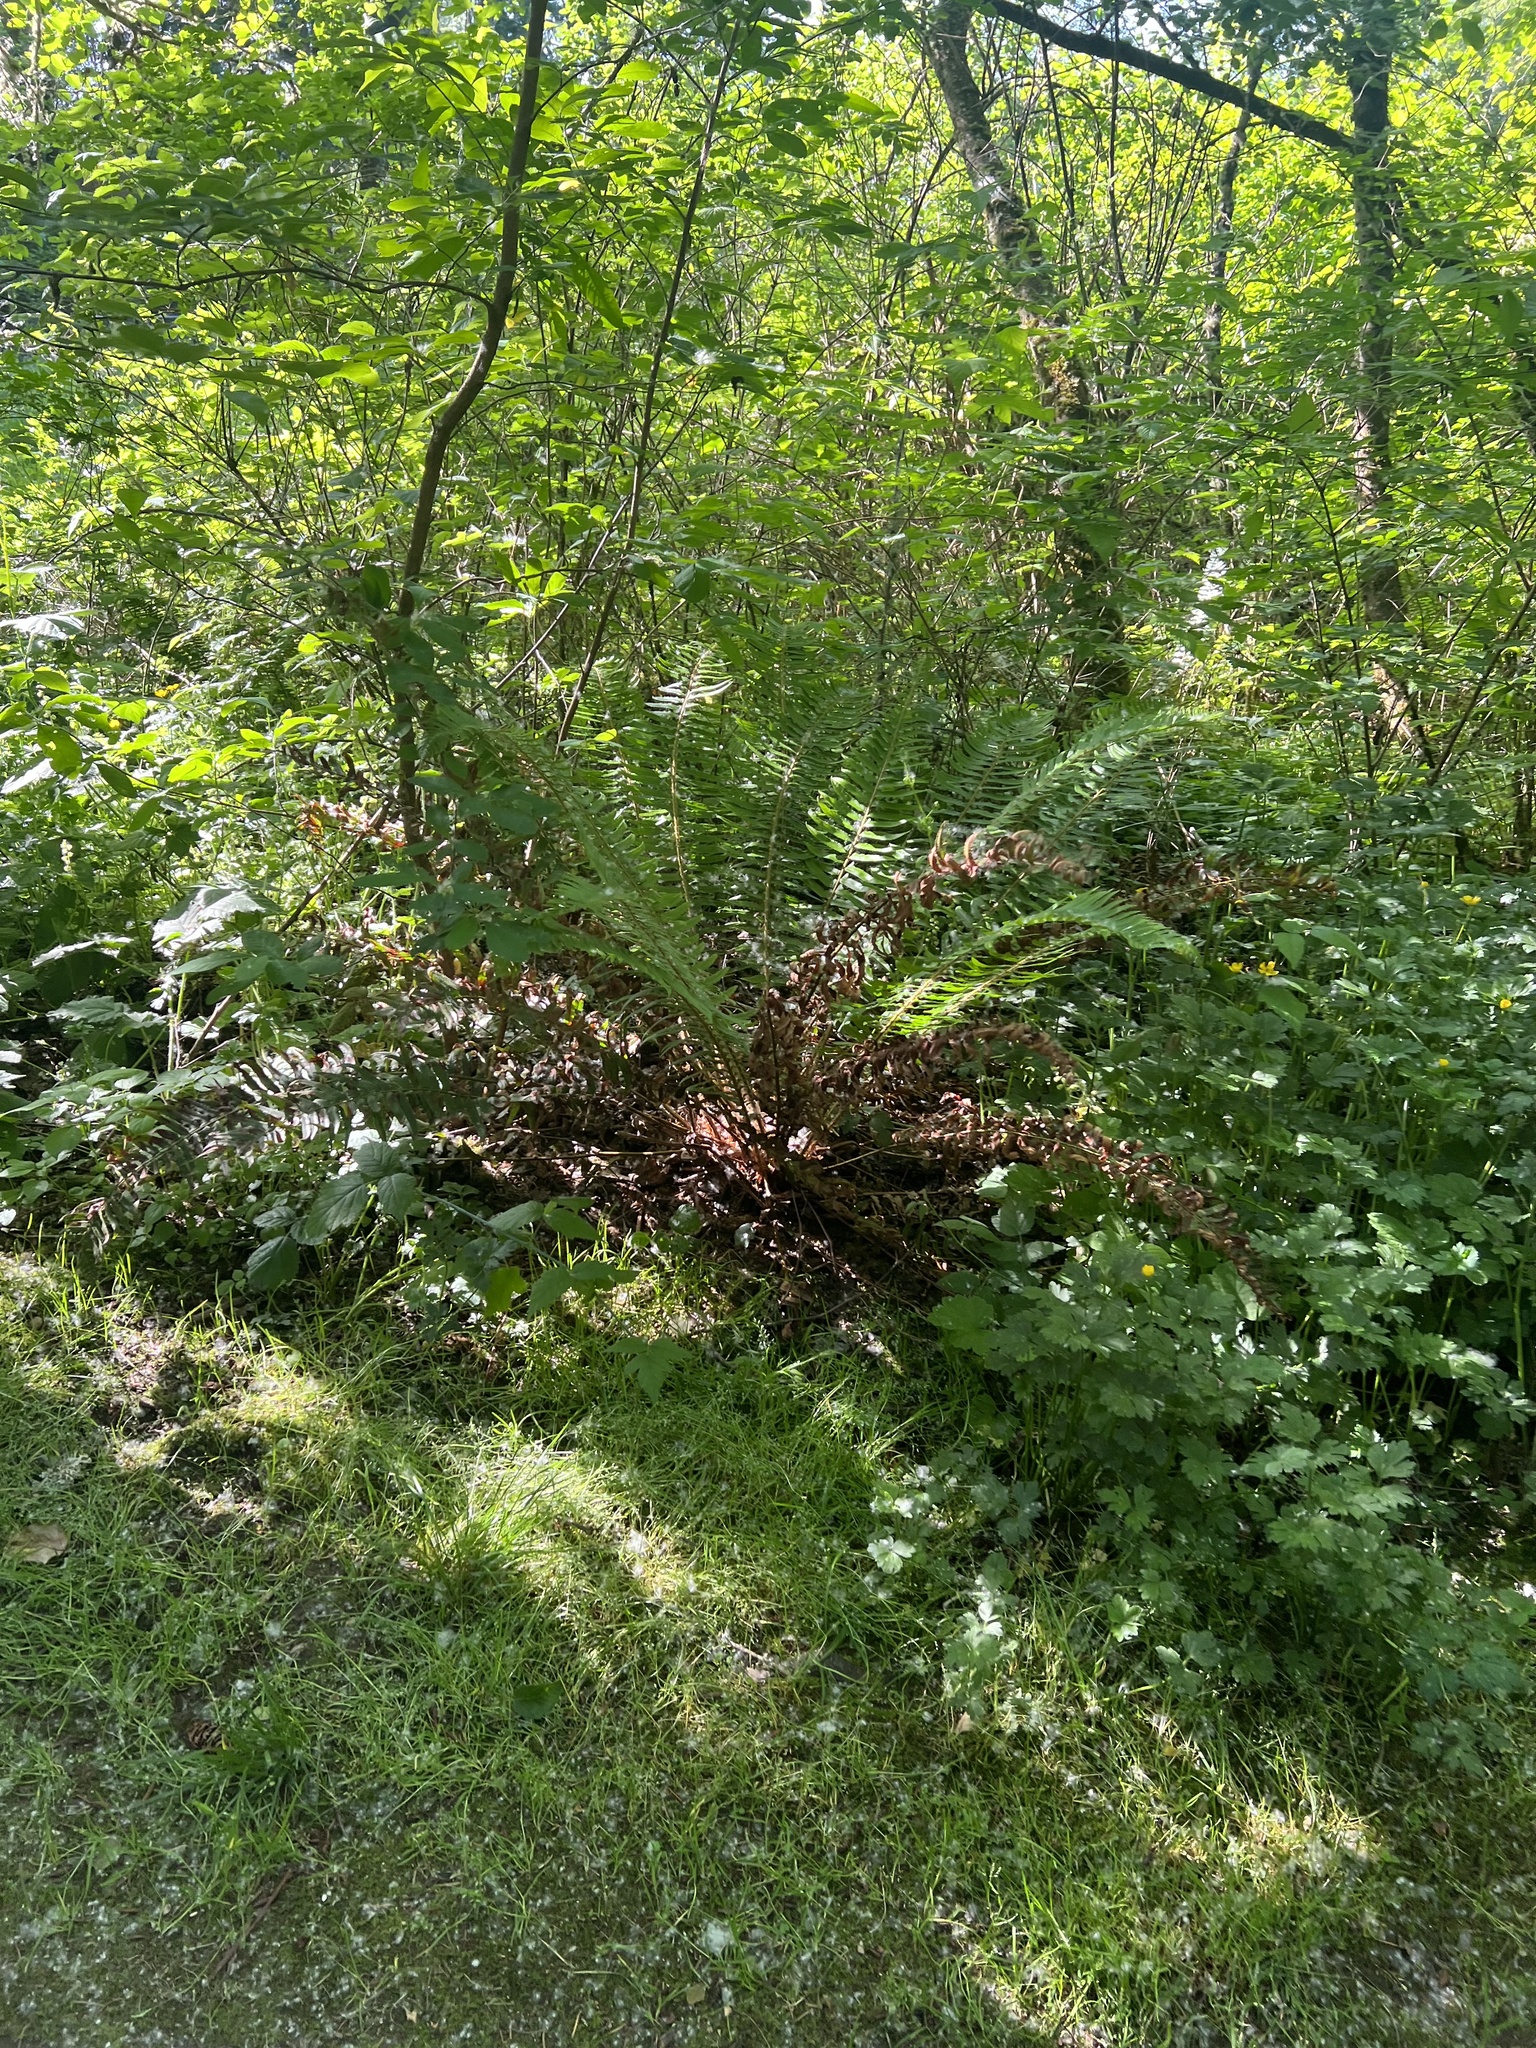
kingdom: Plantae
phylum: Tracheophyta
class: Polypodiopsida
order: Polypodiales
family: Dryopteridaceae
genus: Polystichum
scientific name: Polystichum munitum
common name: Western sword-fern
